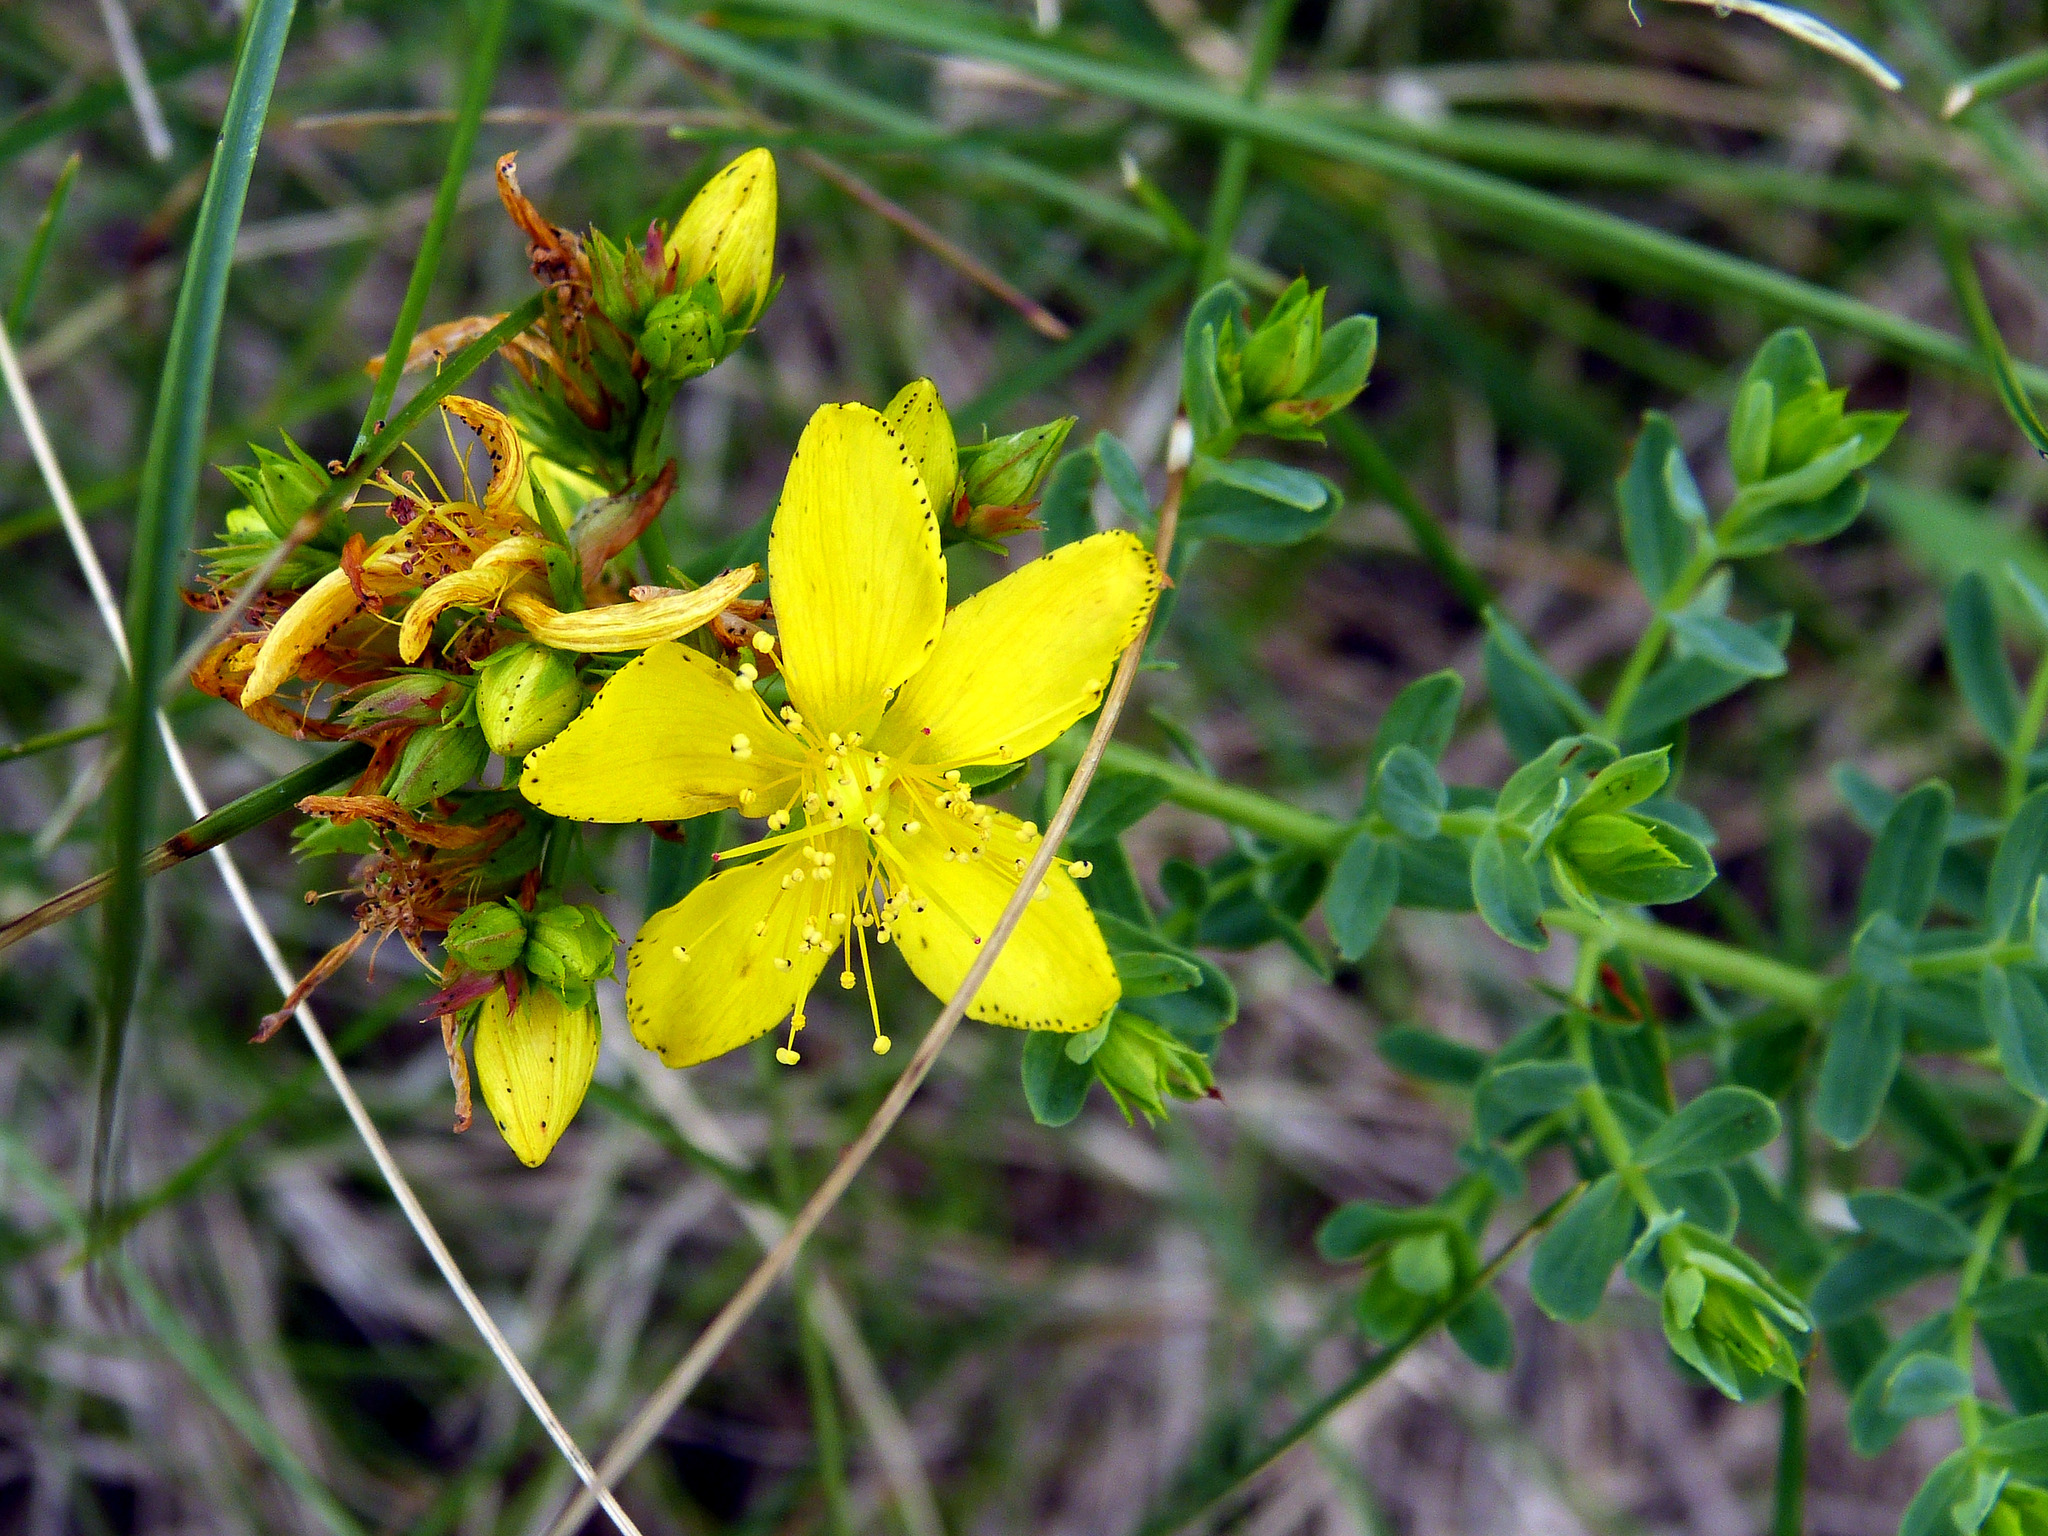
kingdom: Plantae
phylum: Tracheophyta
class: Magnoliopsida
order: Malpighiales
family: Hypericaceae
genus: Hypericum
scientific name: Hypericum perforatum
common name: Common st. johnswort
